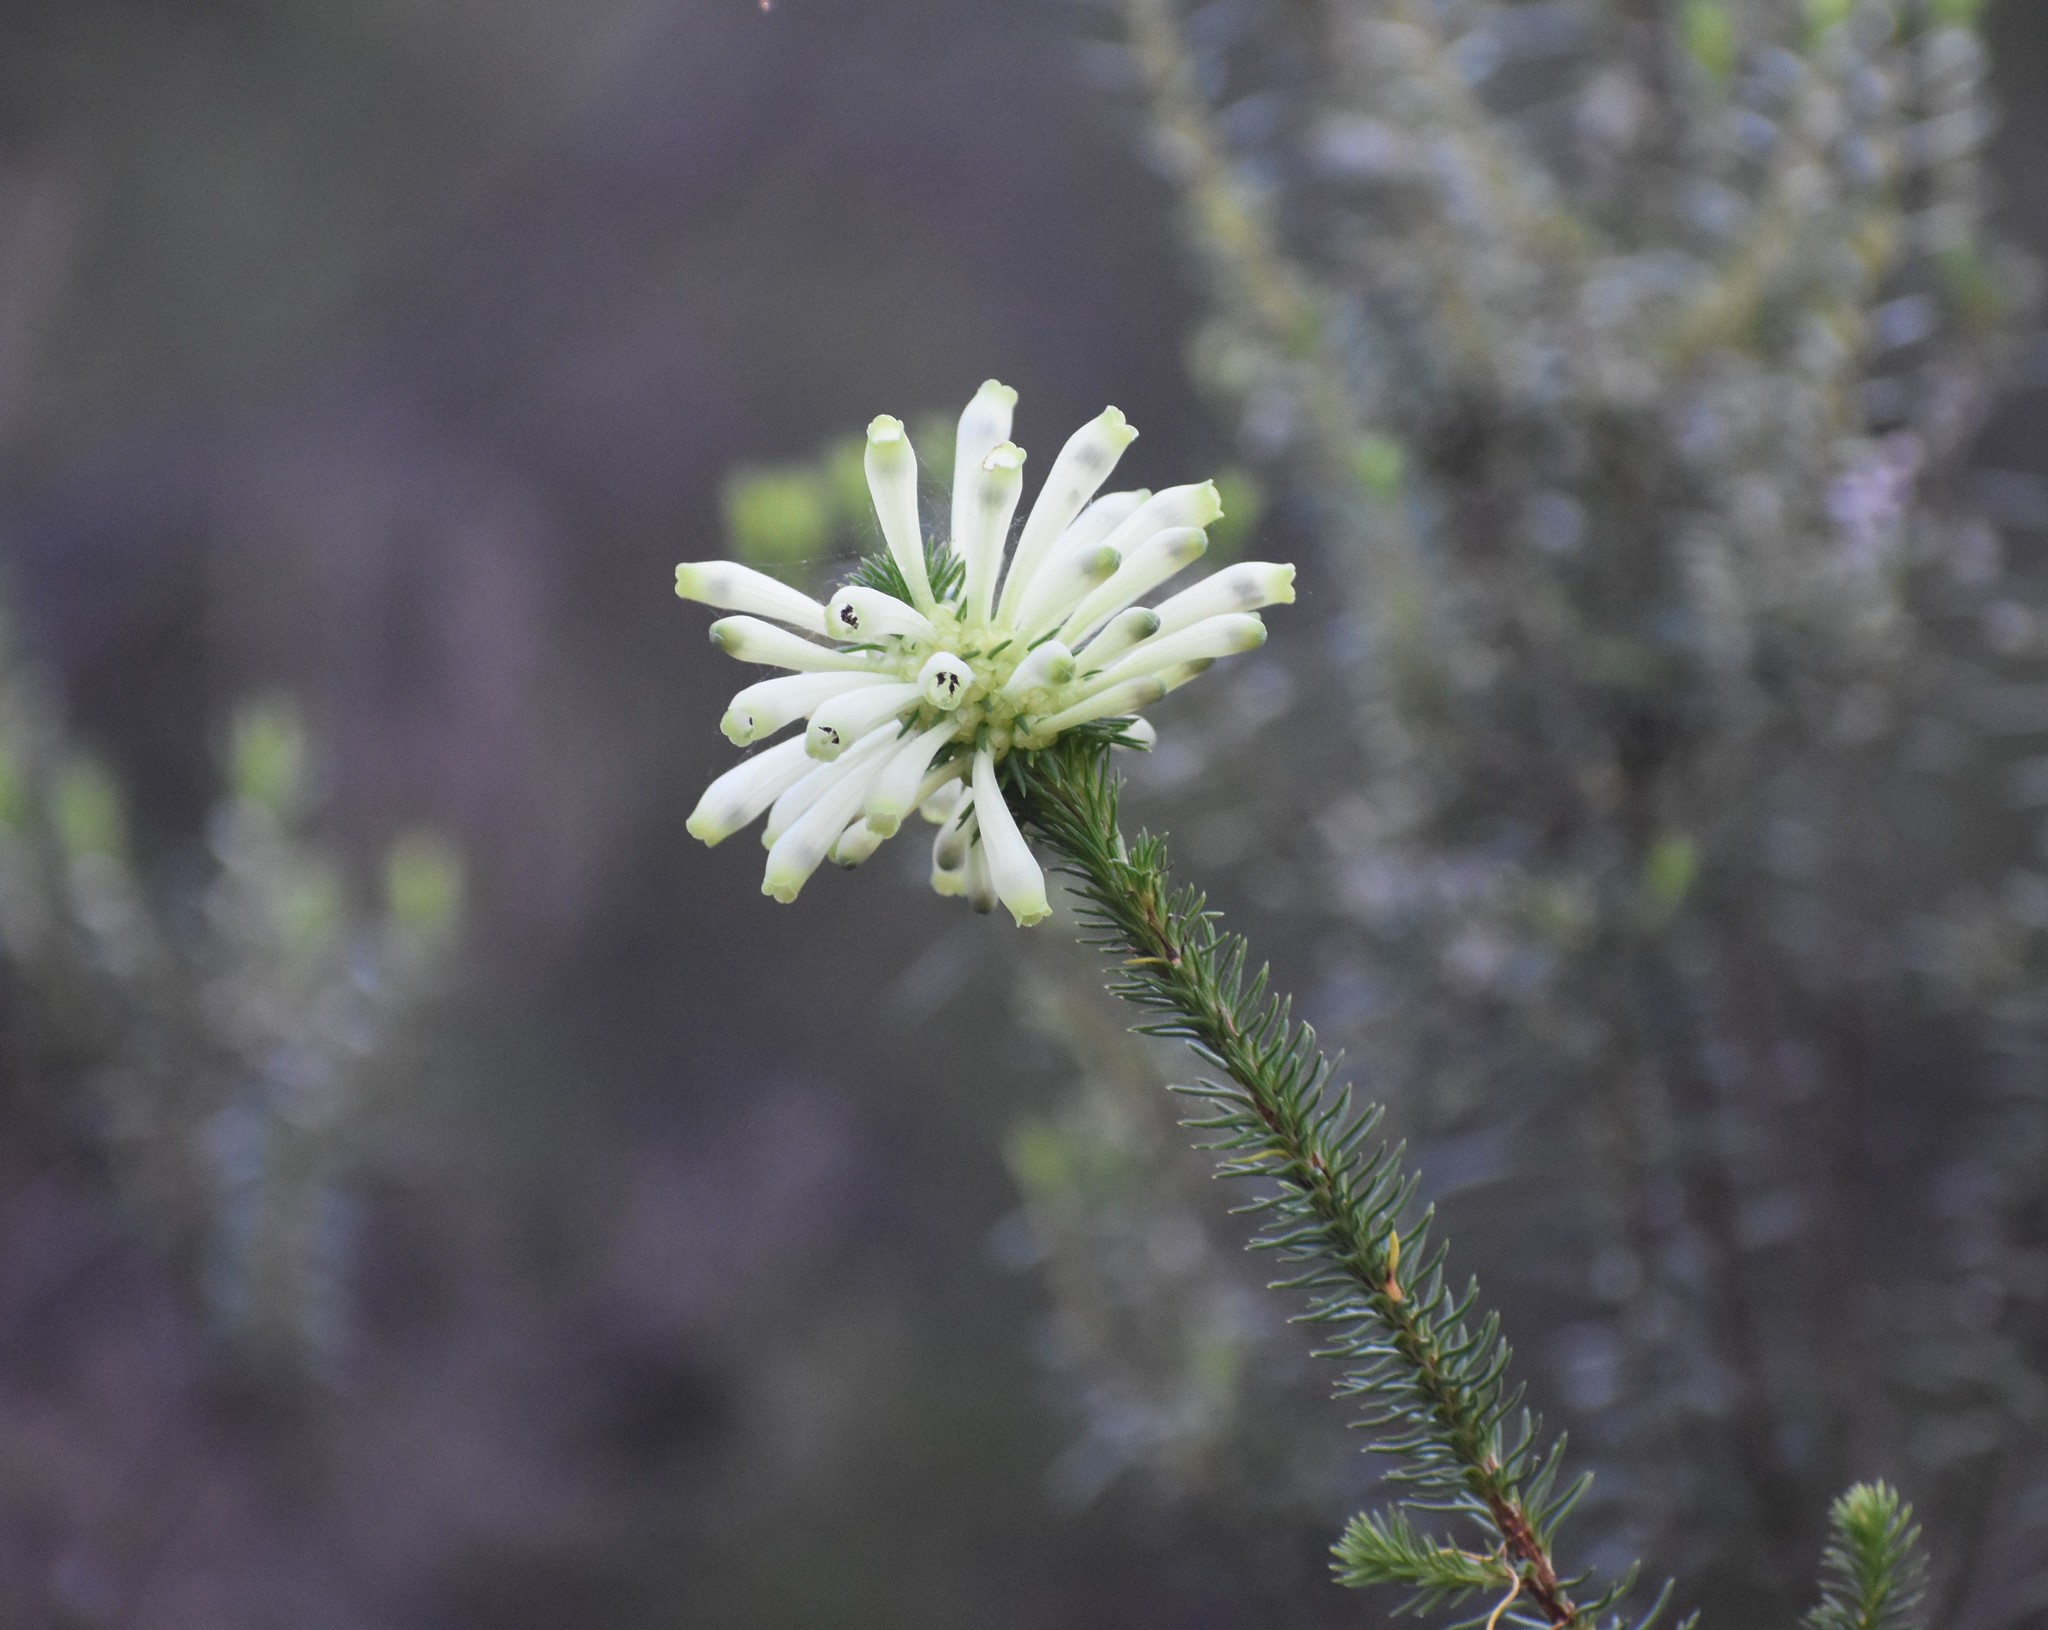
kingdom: Plantae
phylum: Tracheophyta
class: Magnoliopsida
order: Ericales
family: Ericaceae
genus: Erica
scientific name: Erica sessiliflora
